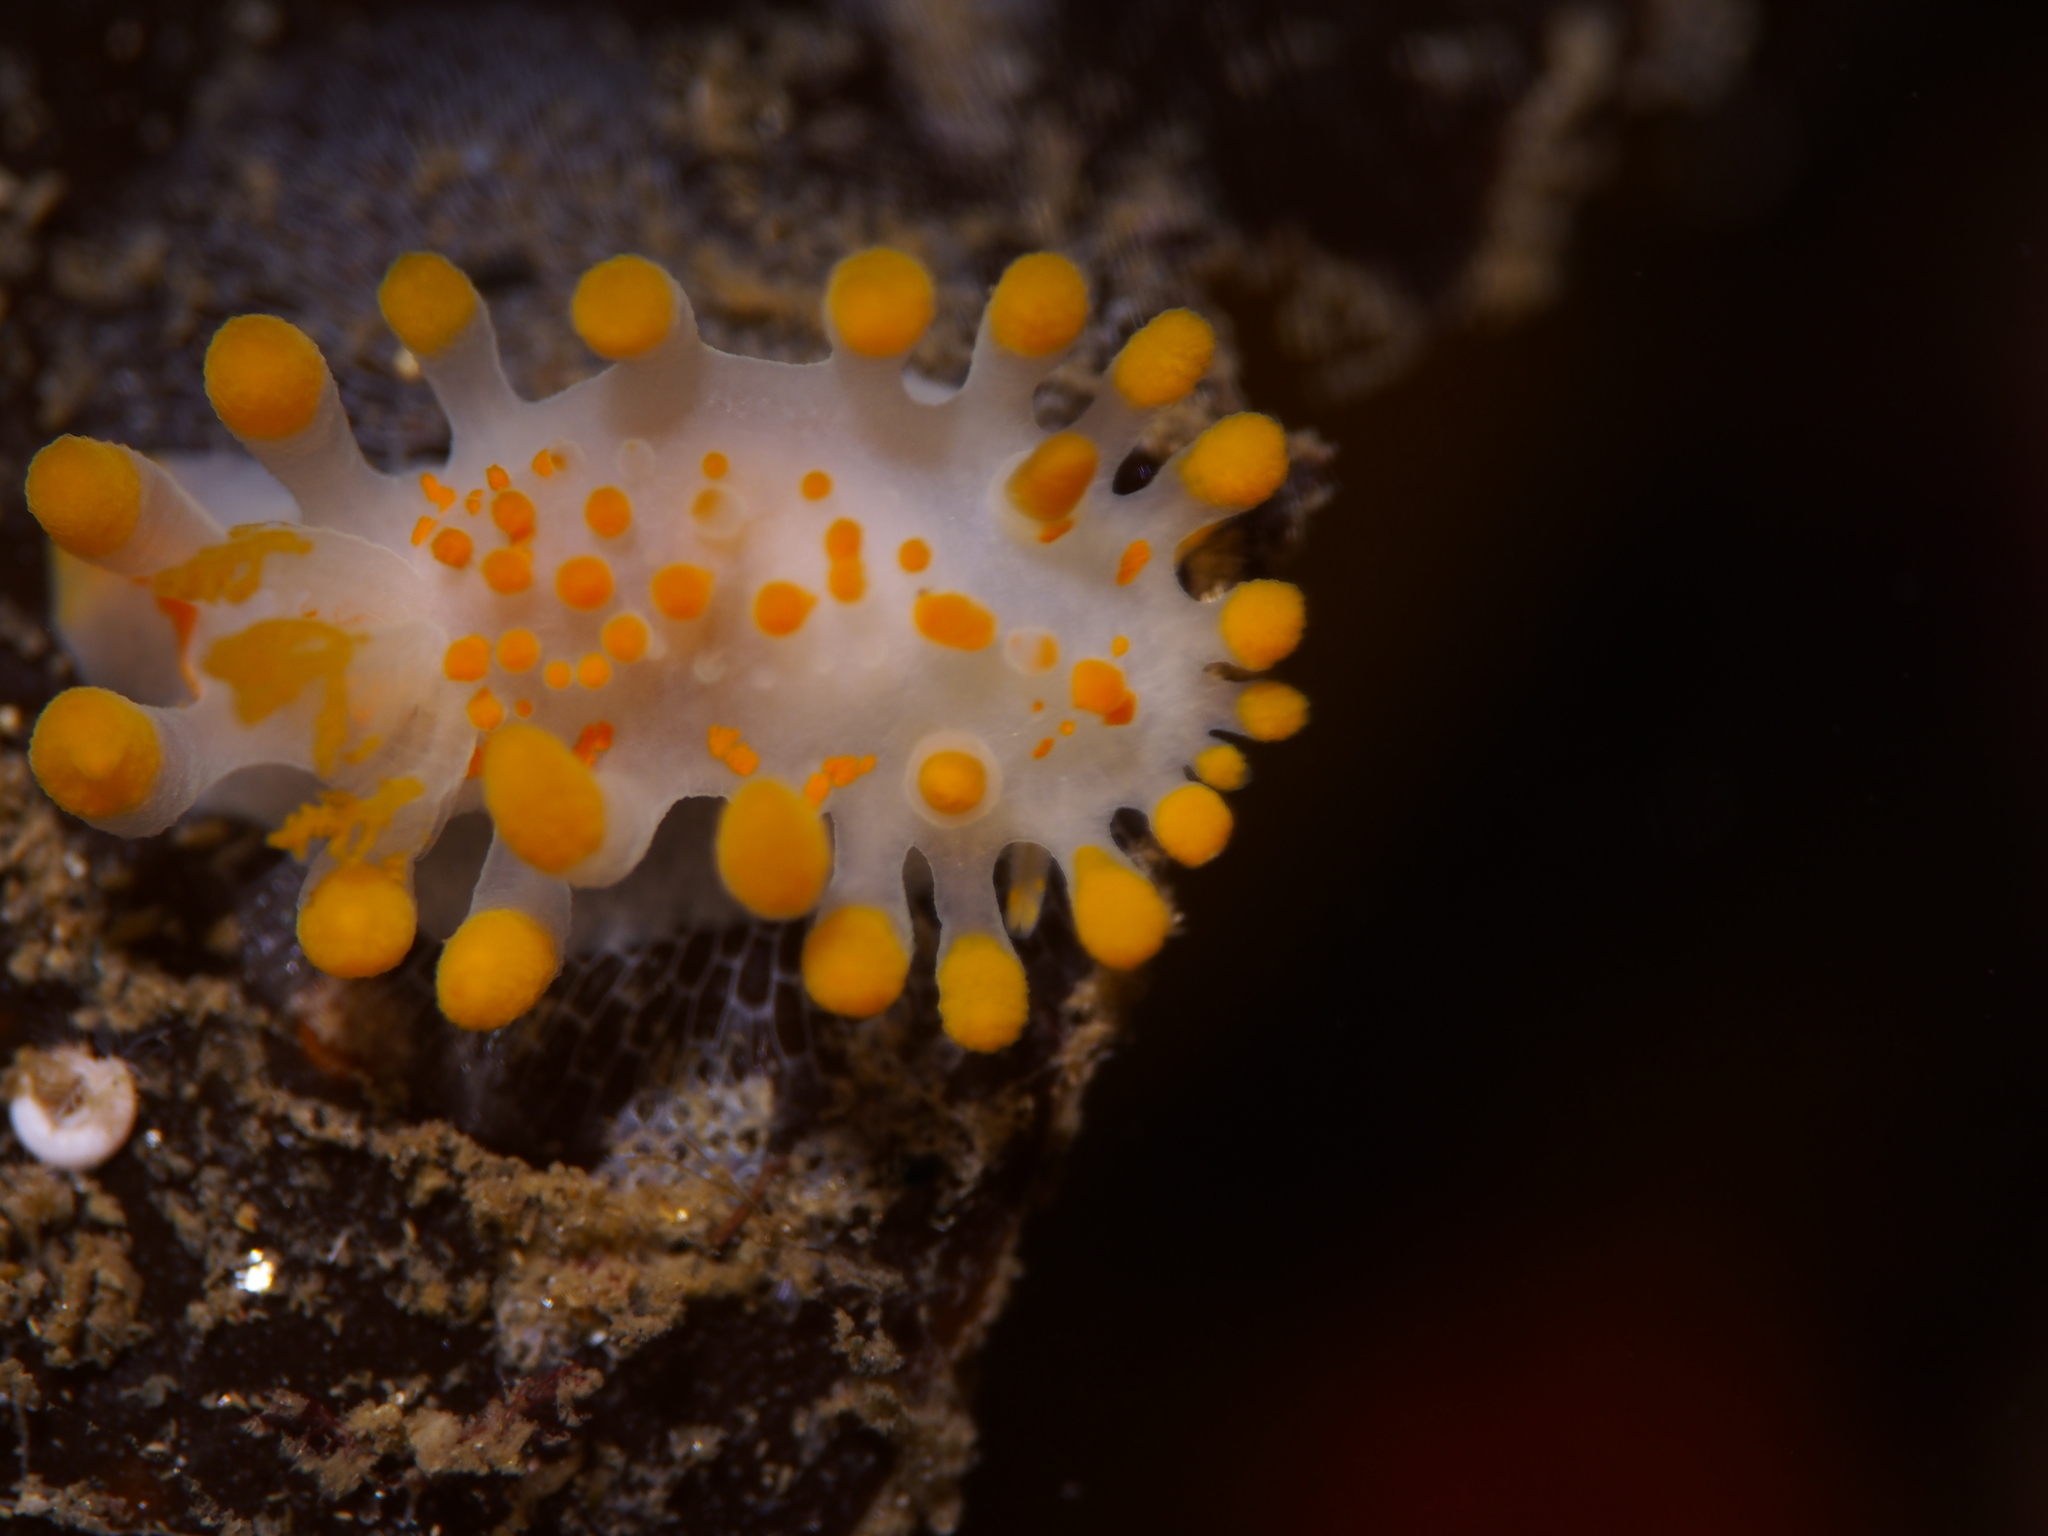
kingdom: Animalia
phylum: Mollusca
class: Gastropoda
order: Nudibranchia
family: Polyceridae
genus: Limacia
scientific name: Limacia clavigera
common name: Orange-clubbed sea slug
